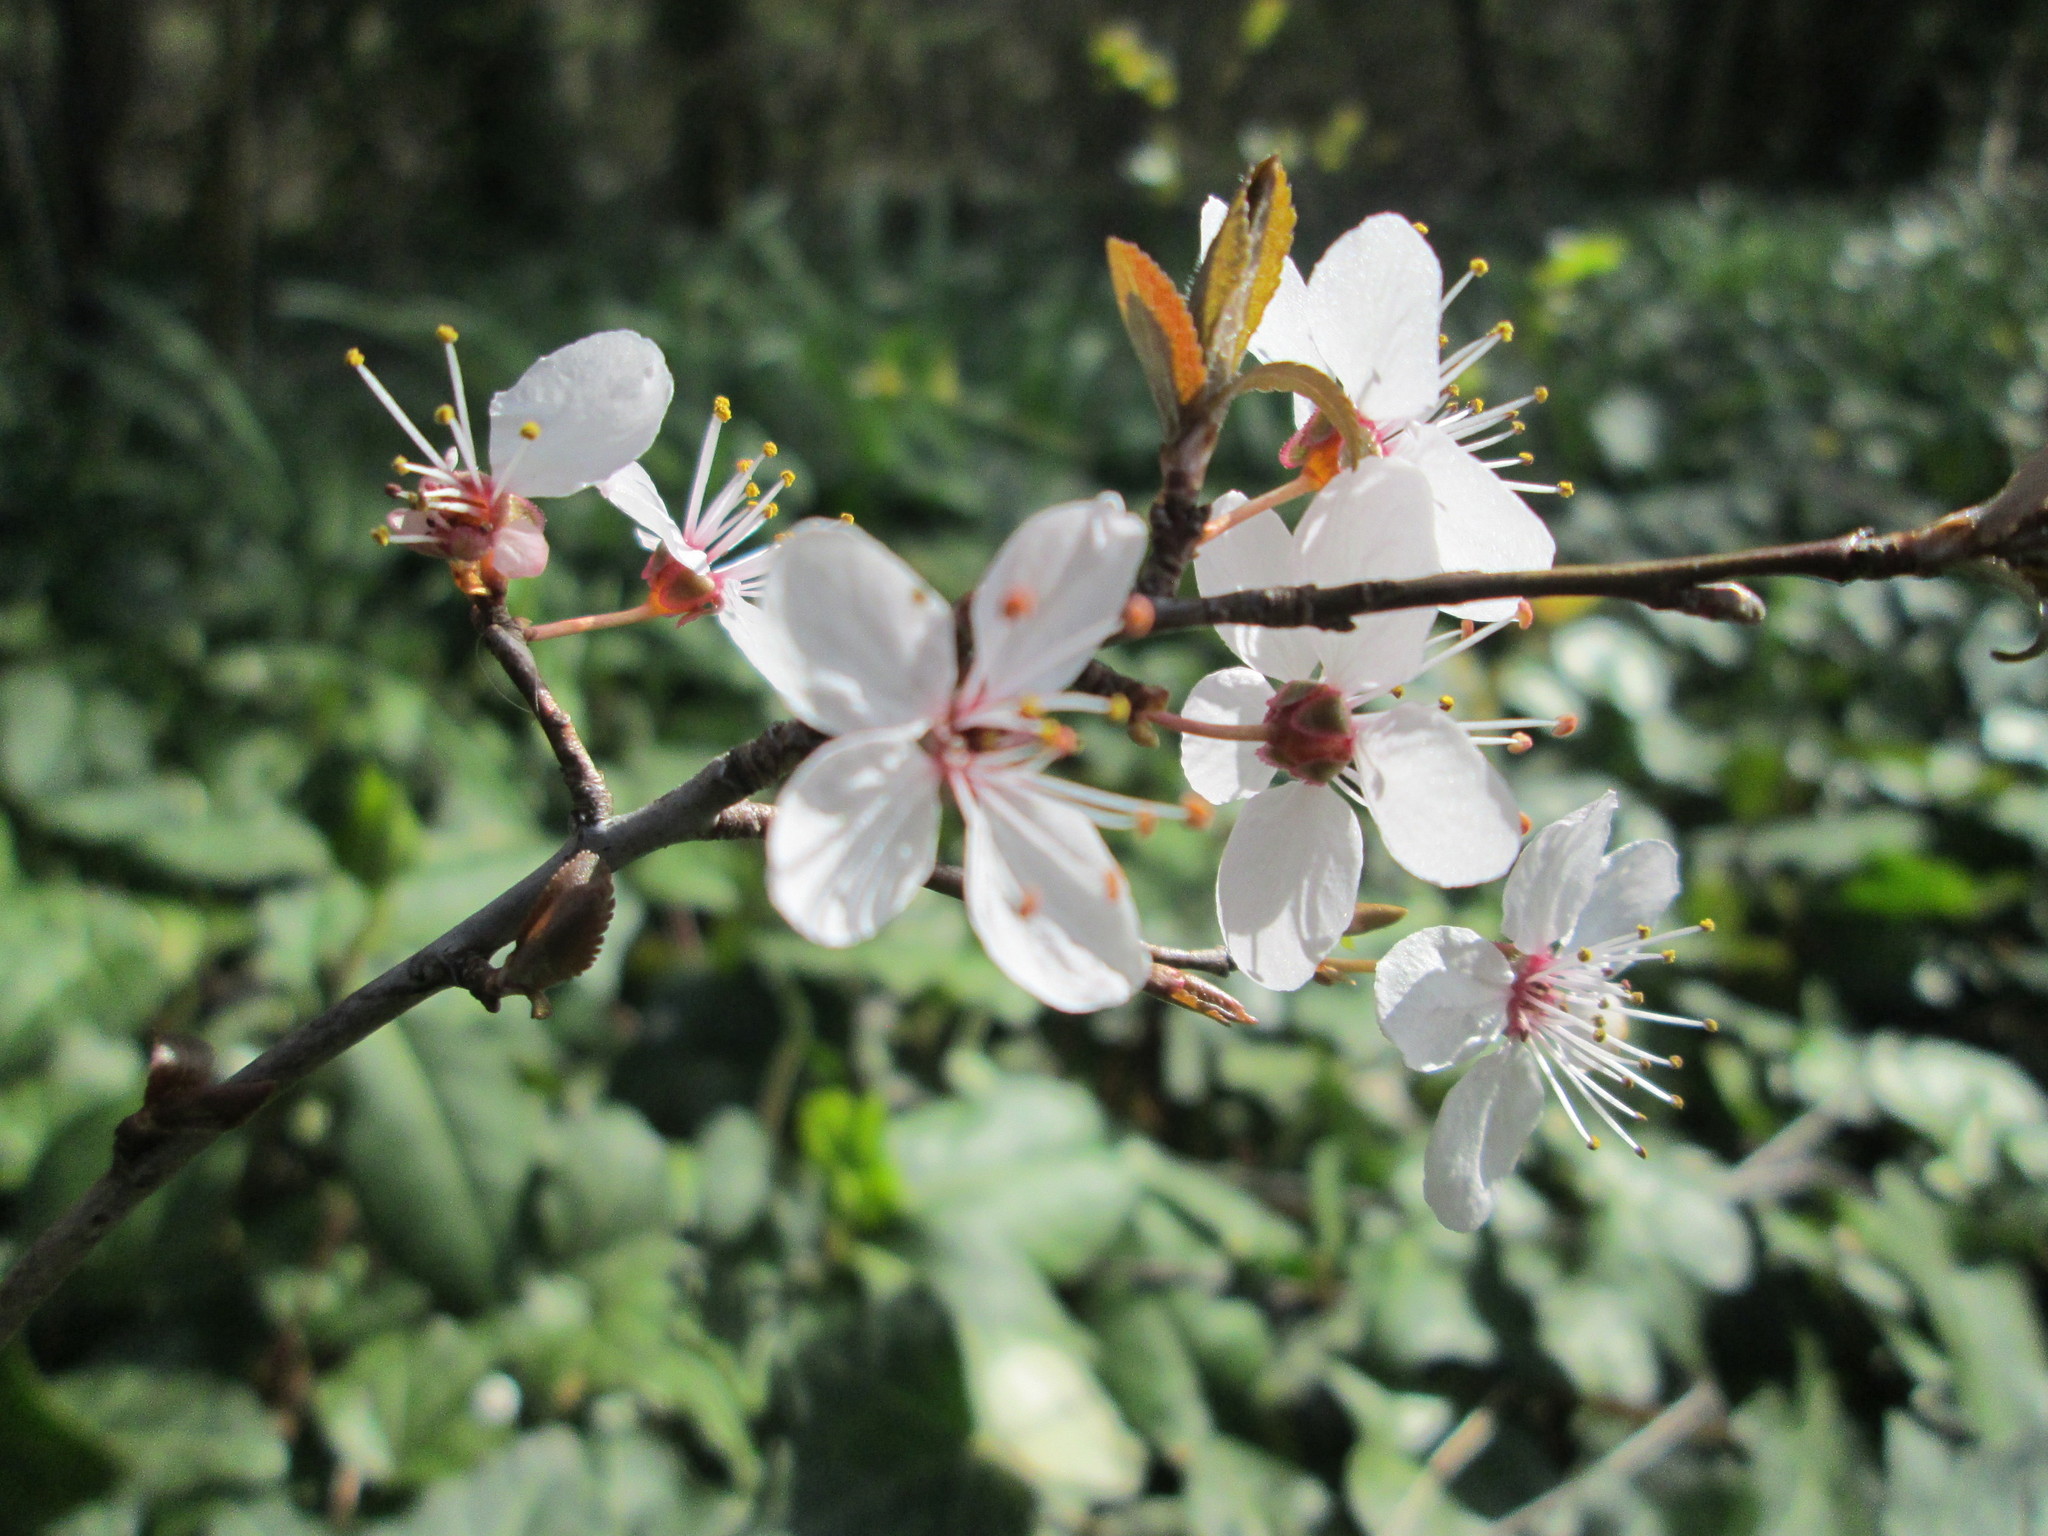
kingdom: Plantae
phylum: Tracheophyta
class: Magnoliopsida
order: Rosales
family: Rosaceae
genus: Prunus
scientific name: Prunus cerasifera
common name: Cherry plum
